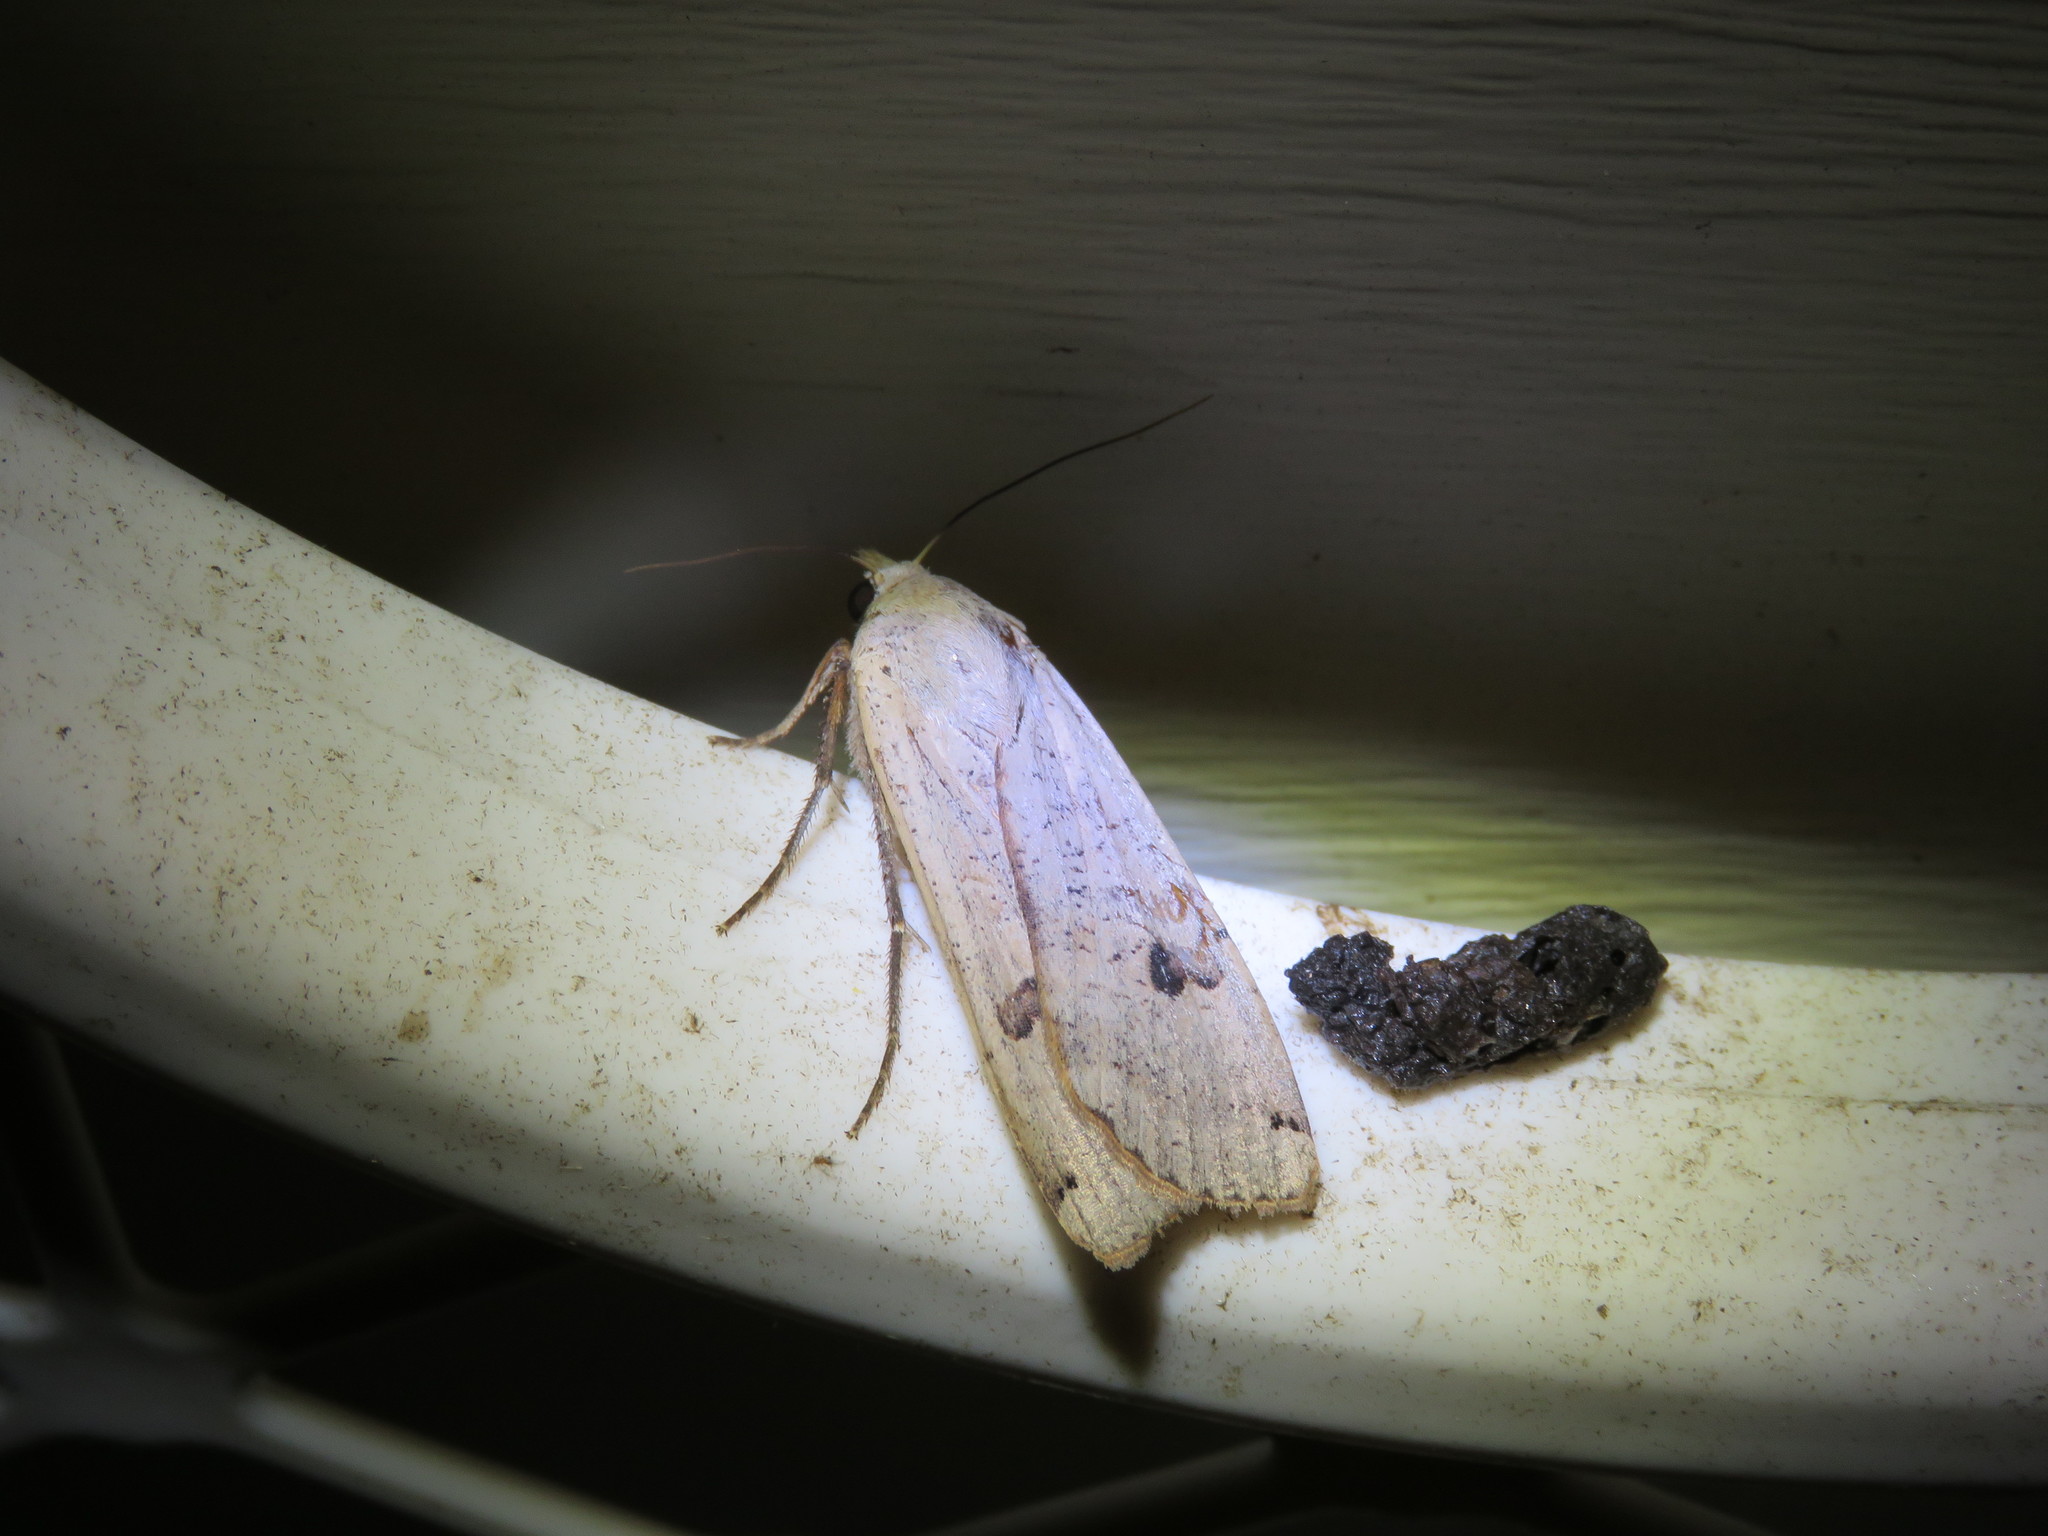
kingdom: Animalia
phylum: Arthropoda
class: Insecta
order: Lepidoptera
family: Noctuidae
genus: Noctua
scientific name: Noctua pronuba
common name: Large yellow underwing
